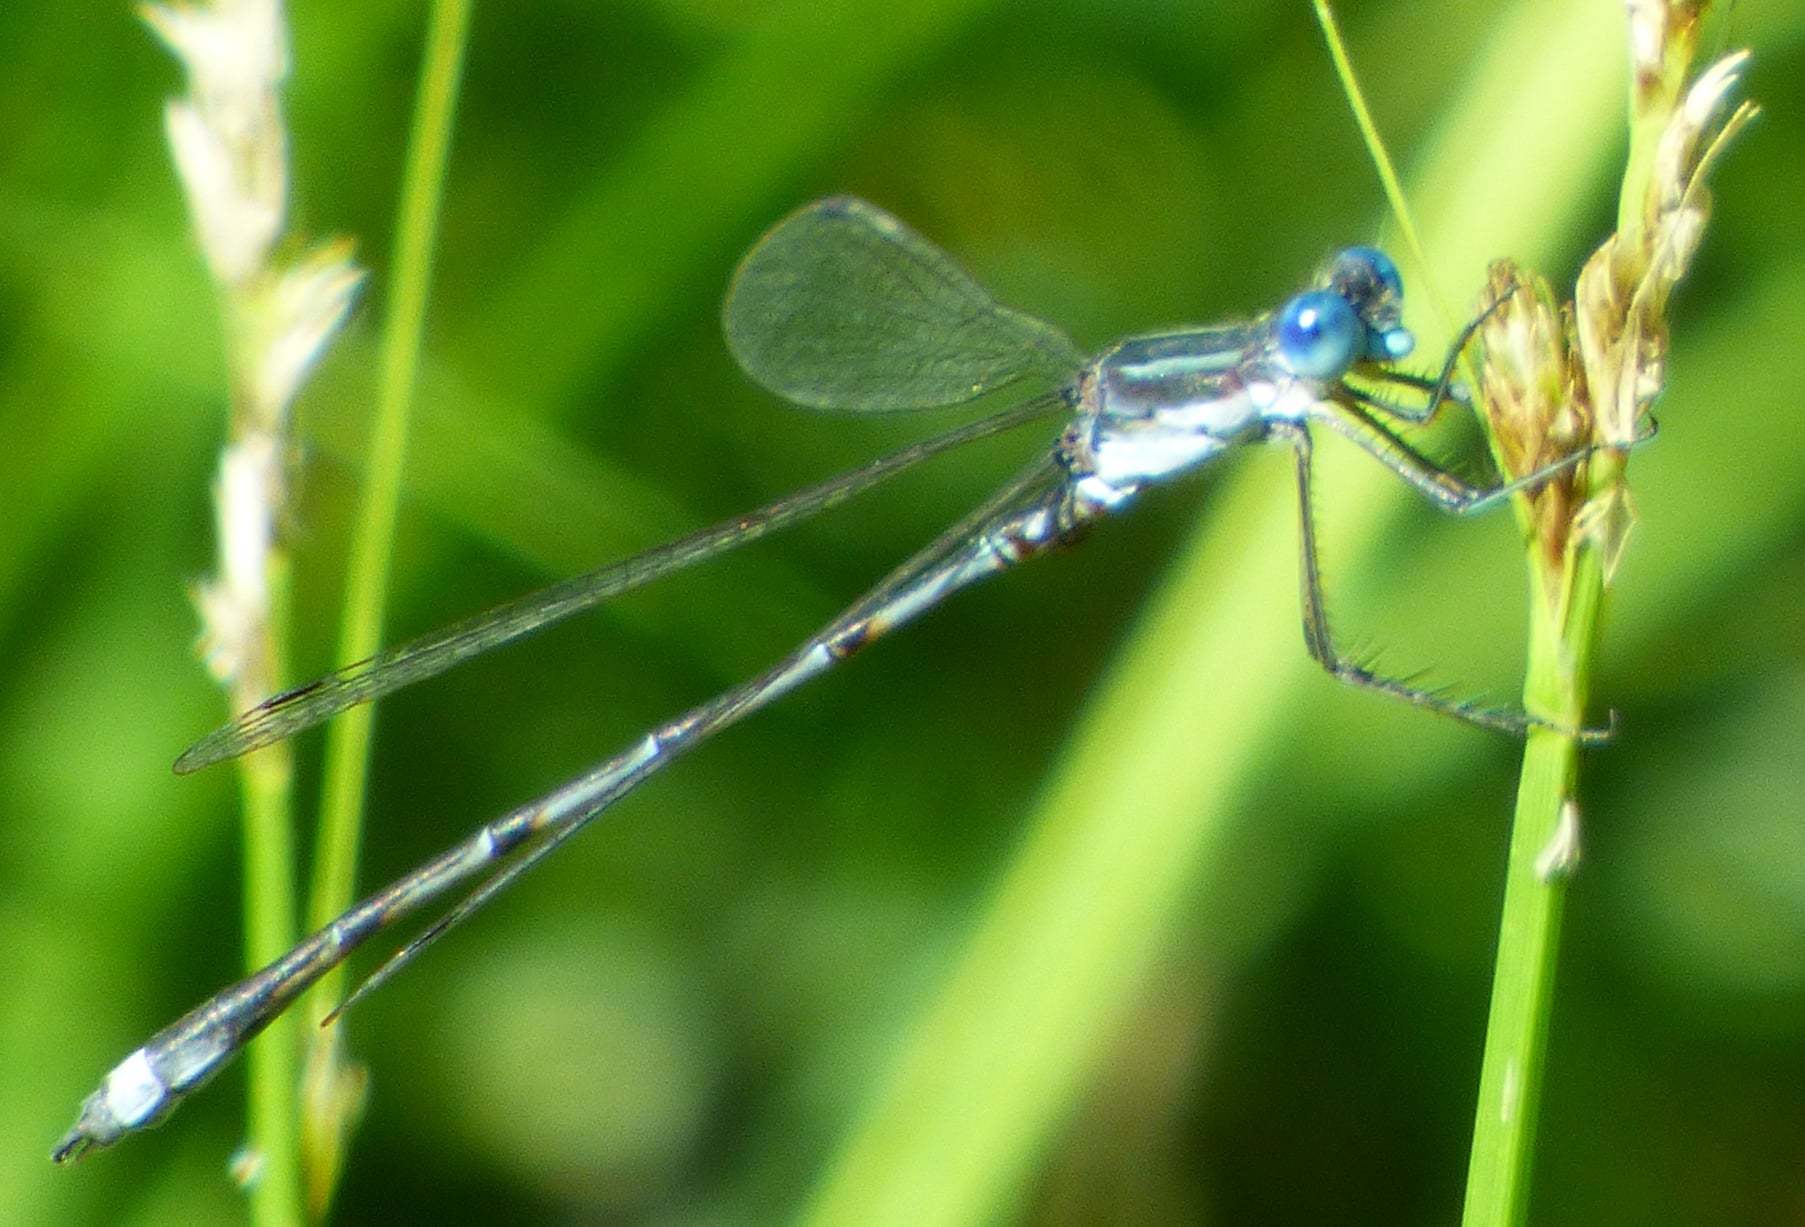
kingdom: Animalia
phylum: Arthropoda
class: Insecta
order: Odonata
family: Lestidae
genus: Lestes
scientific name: Lestes australis
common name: Southern spreadwing
